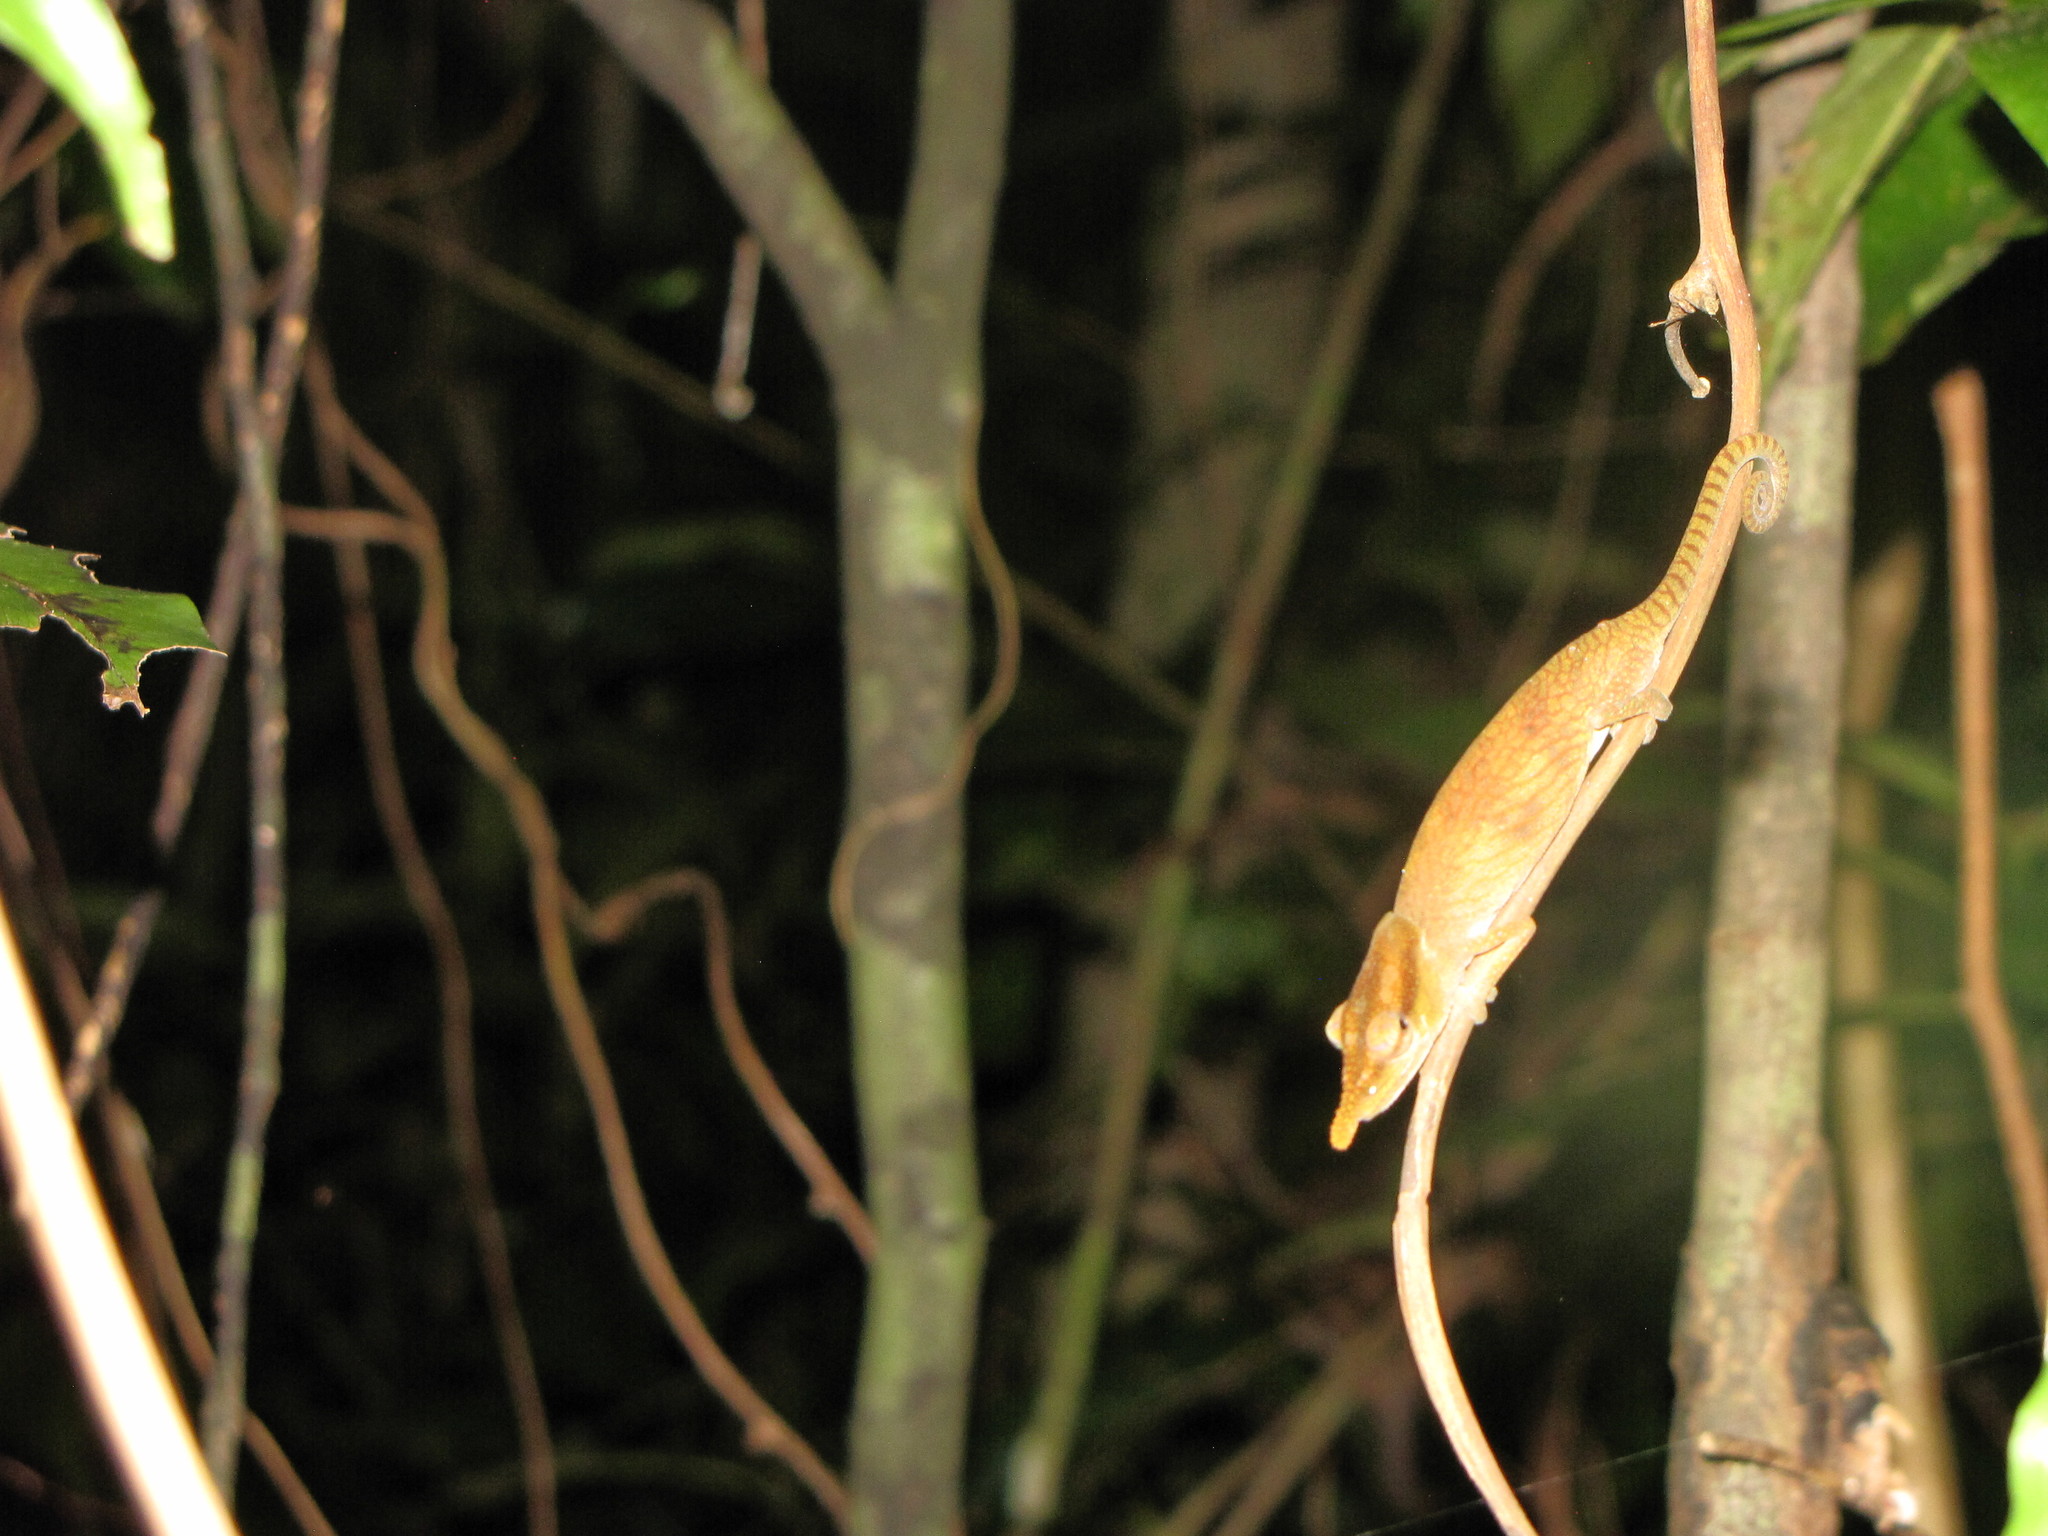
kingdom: Animalia
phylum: Chordata
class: Squamata
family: Chamaeleonidae
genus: Calumma
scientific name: Calumma boettgeri
